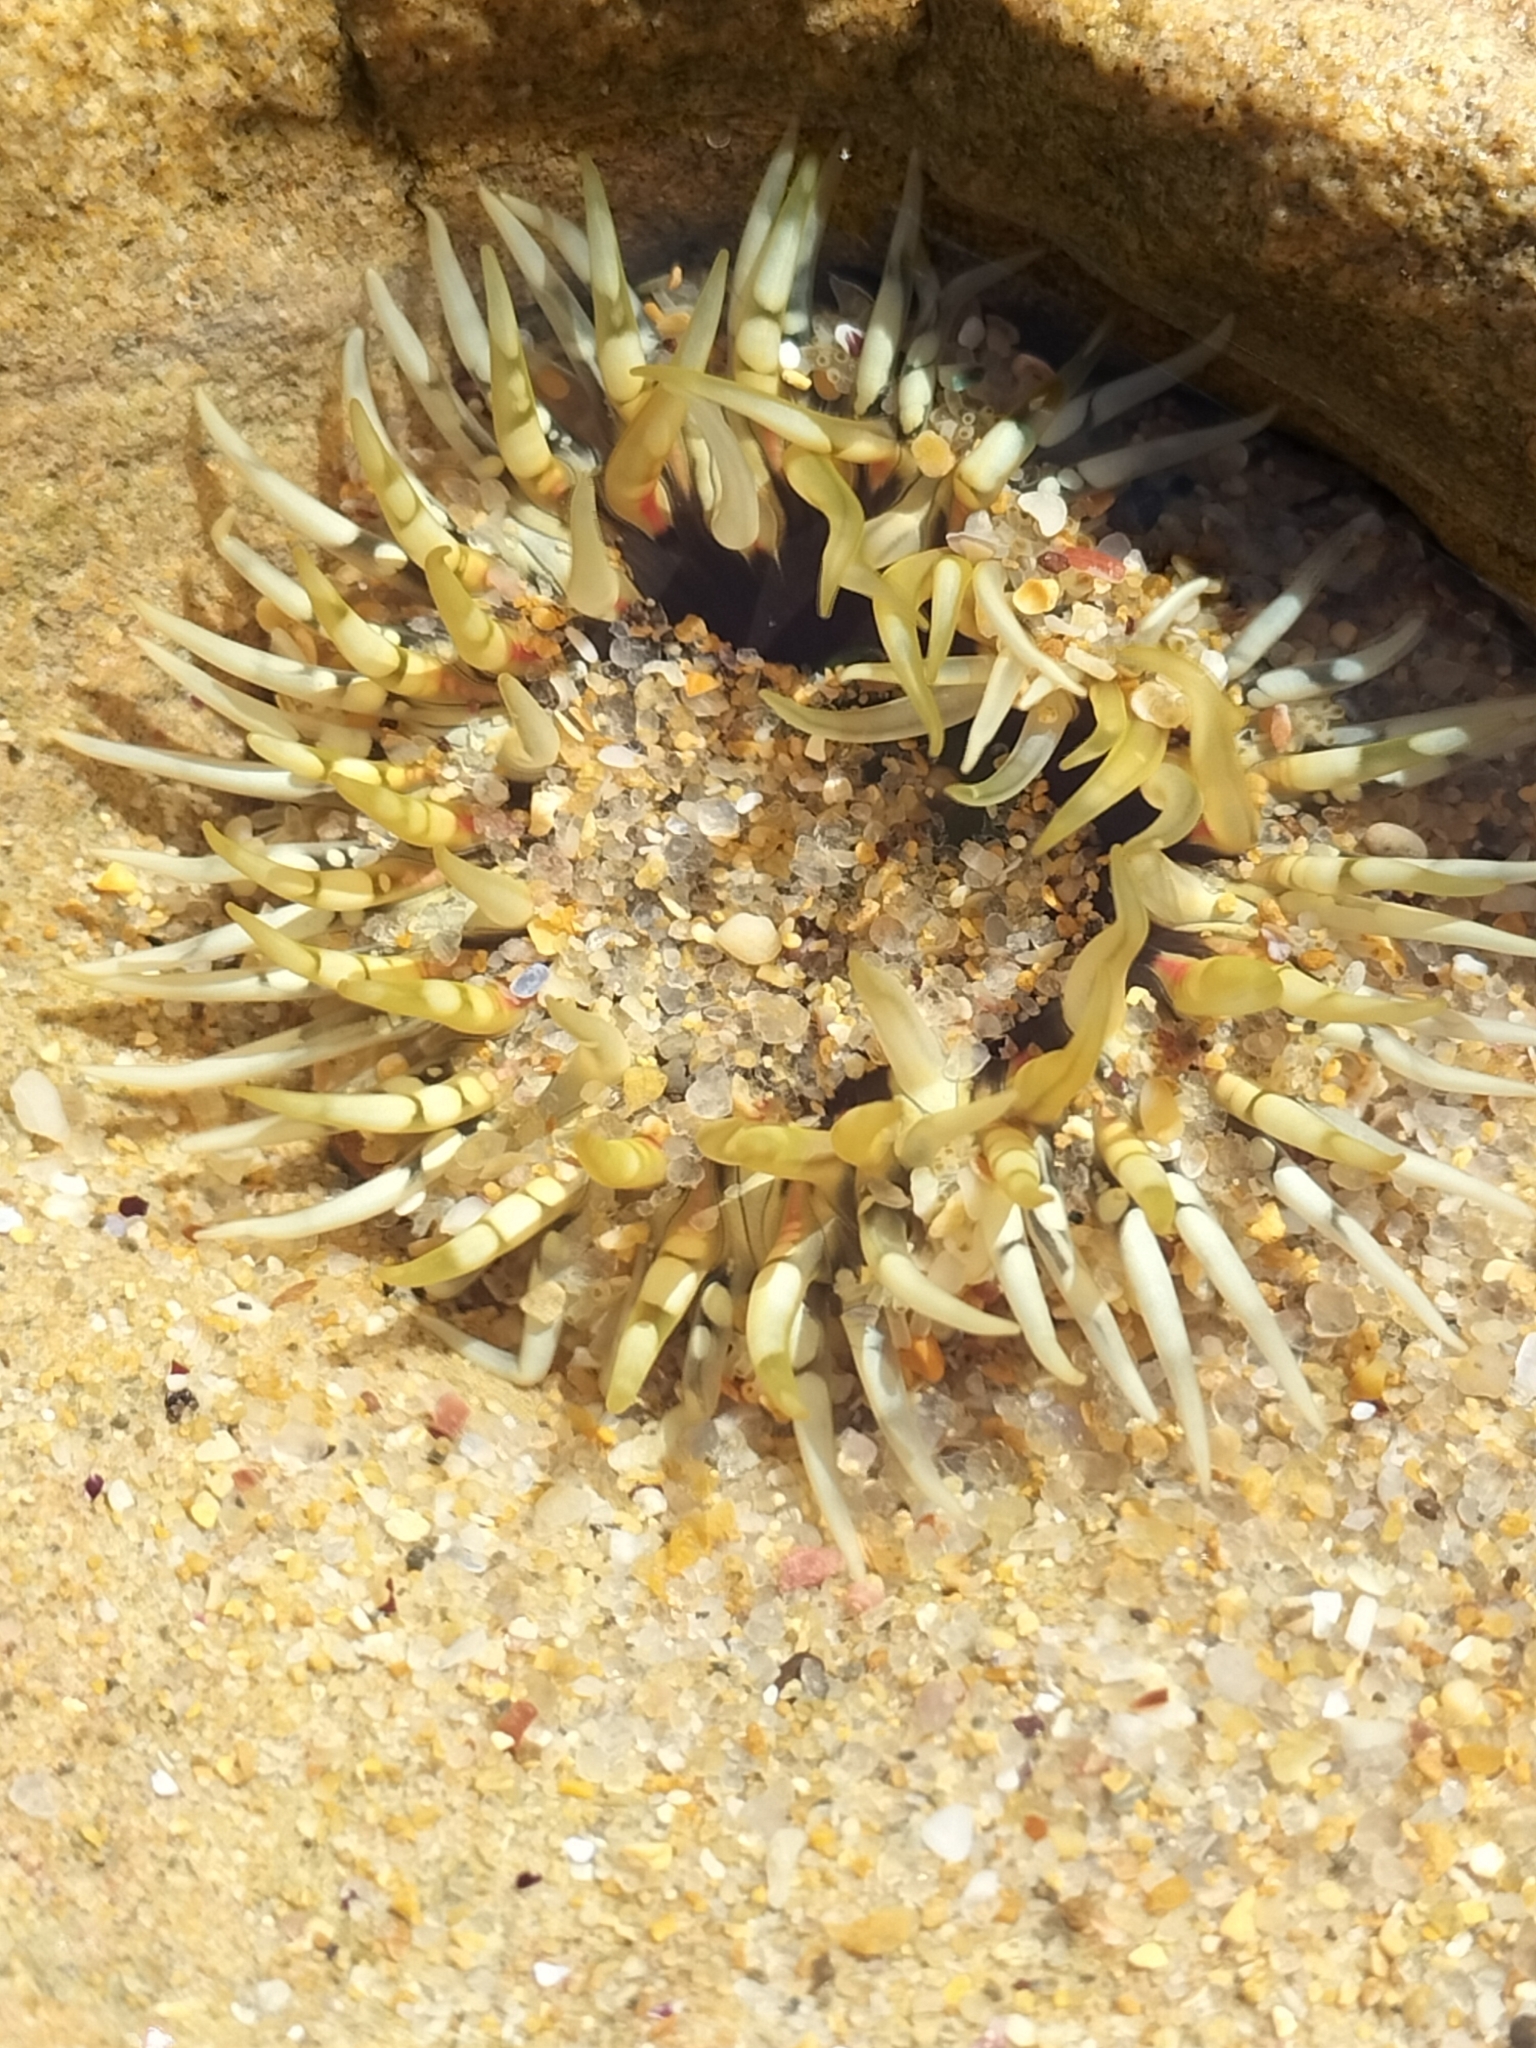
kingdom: Animalia
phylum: Cnidaria
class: Anthozoa
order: Actiniaria
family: Actiniidae
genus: Oulactis
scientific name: Oulactis muscosa
